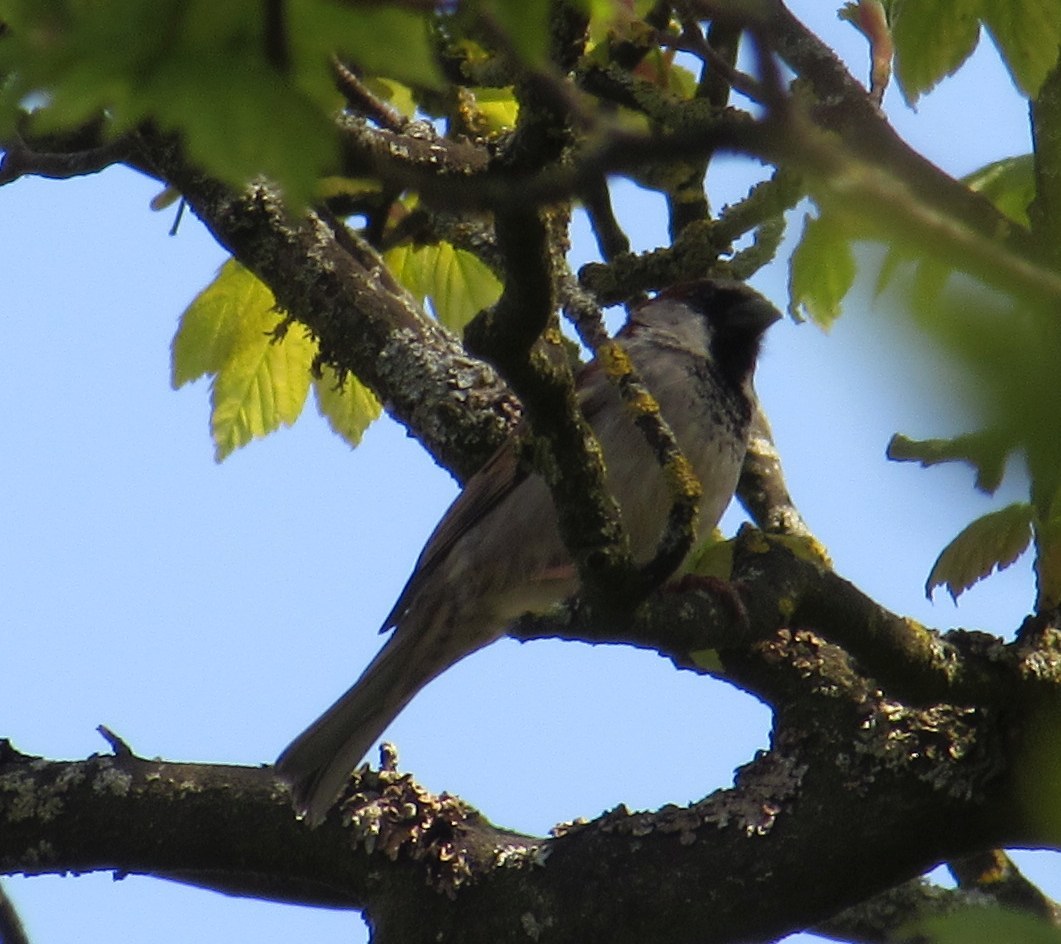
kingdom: Animalia
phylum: Chordata
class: Aves
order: Passeriformes
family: Passeridae
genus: Passer
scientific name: Passer domesticus
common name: House sparrow
